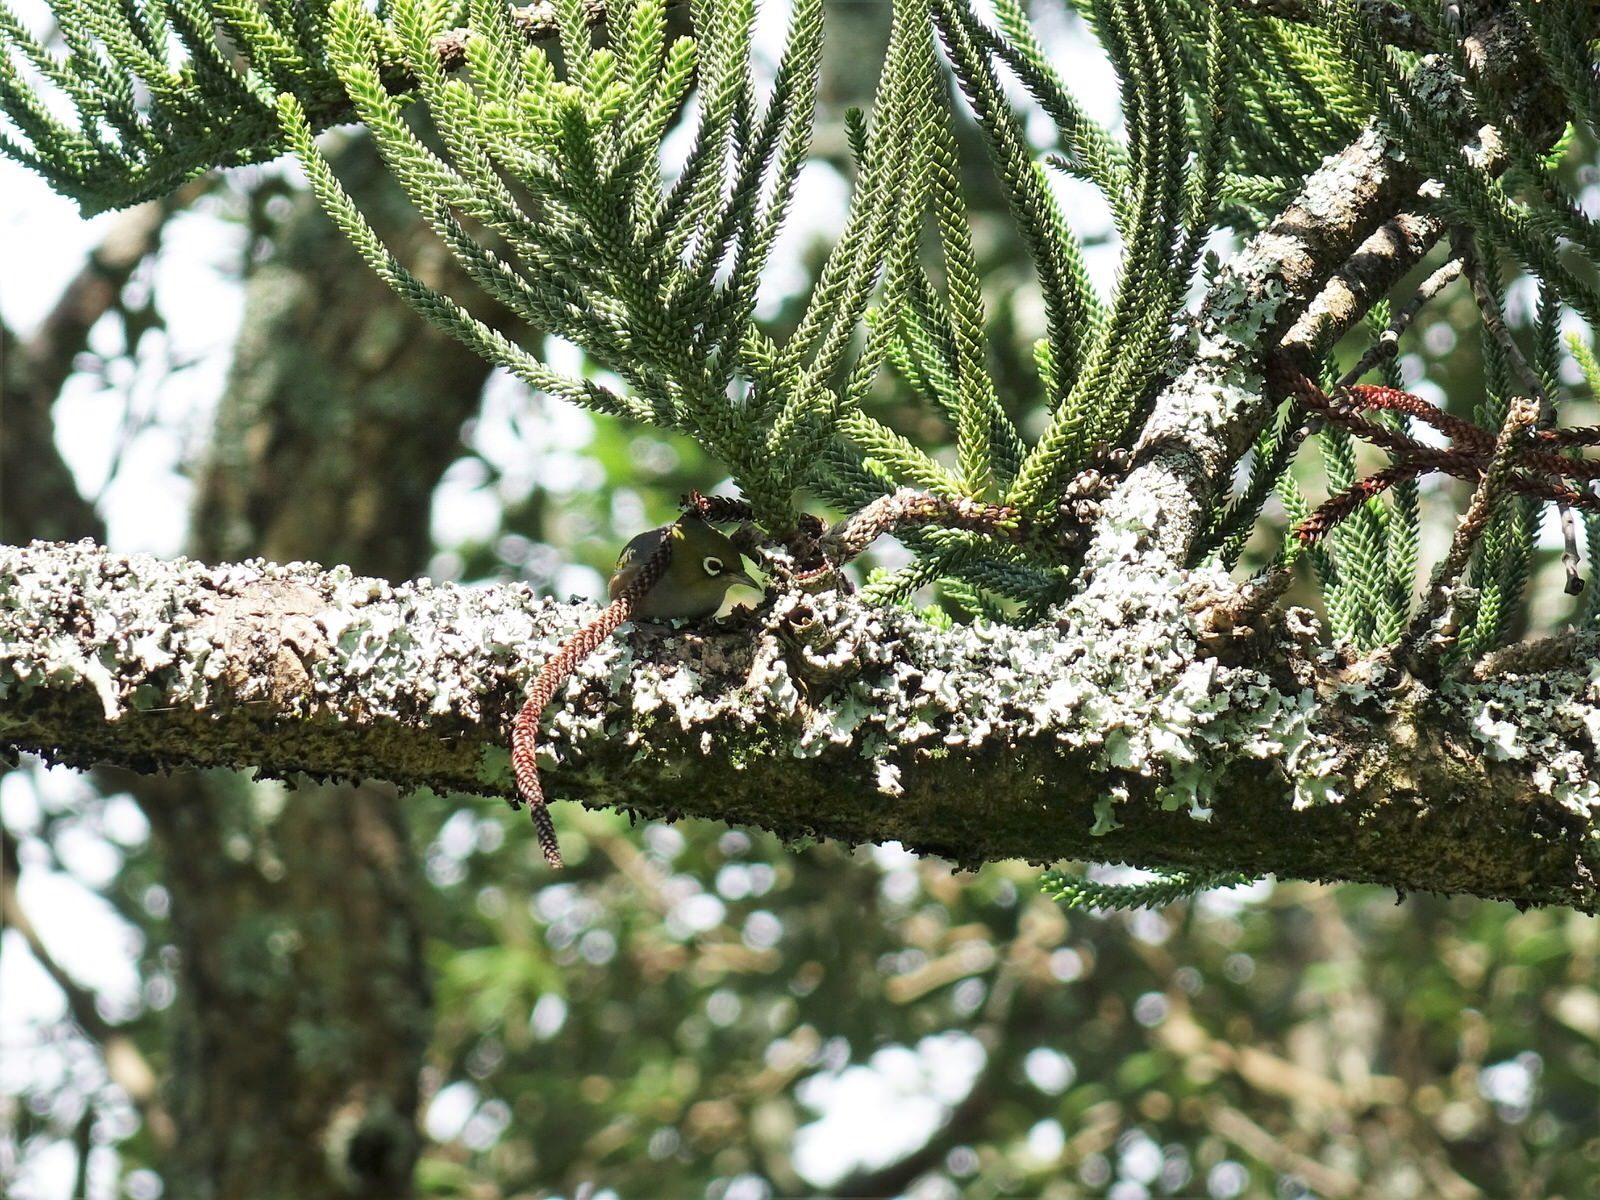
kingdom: Animalia
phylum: Chordata
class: Aves
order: Passeriformes
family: Zosteropidae
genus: Zosterops
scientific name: Zosterops lateralis
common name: Silvereye
